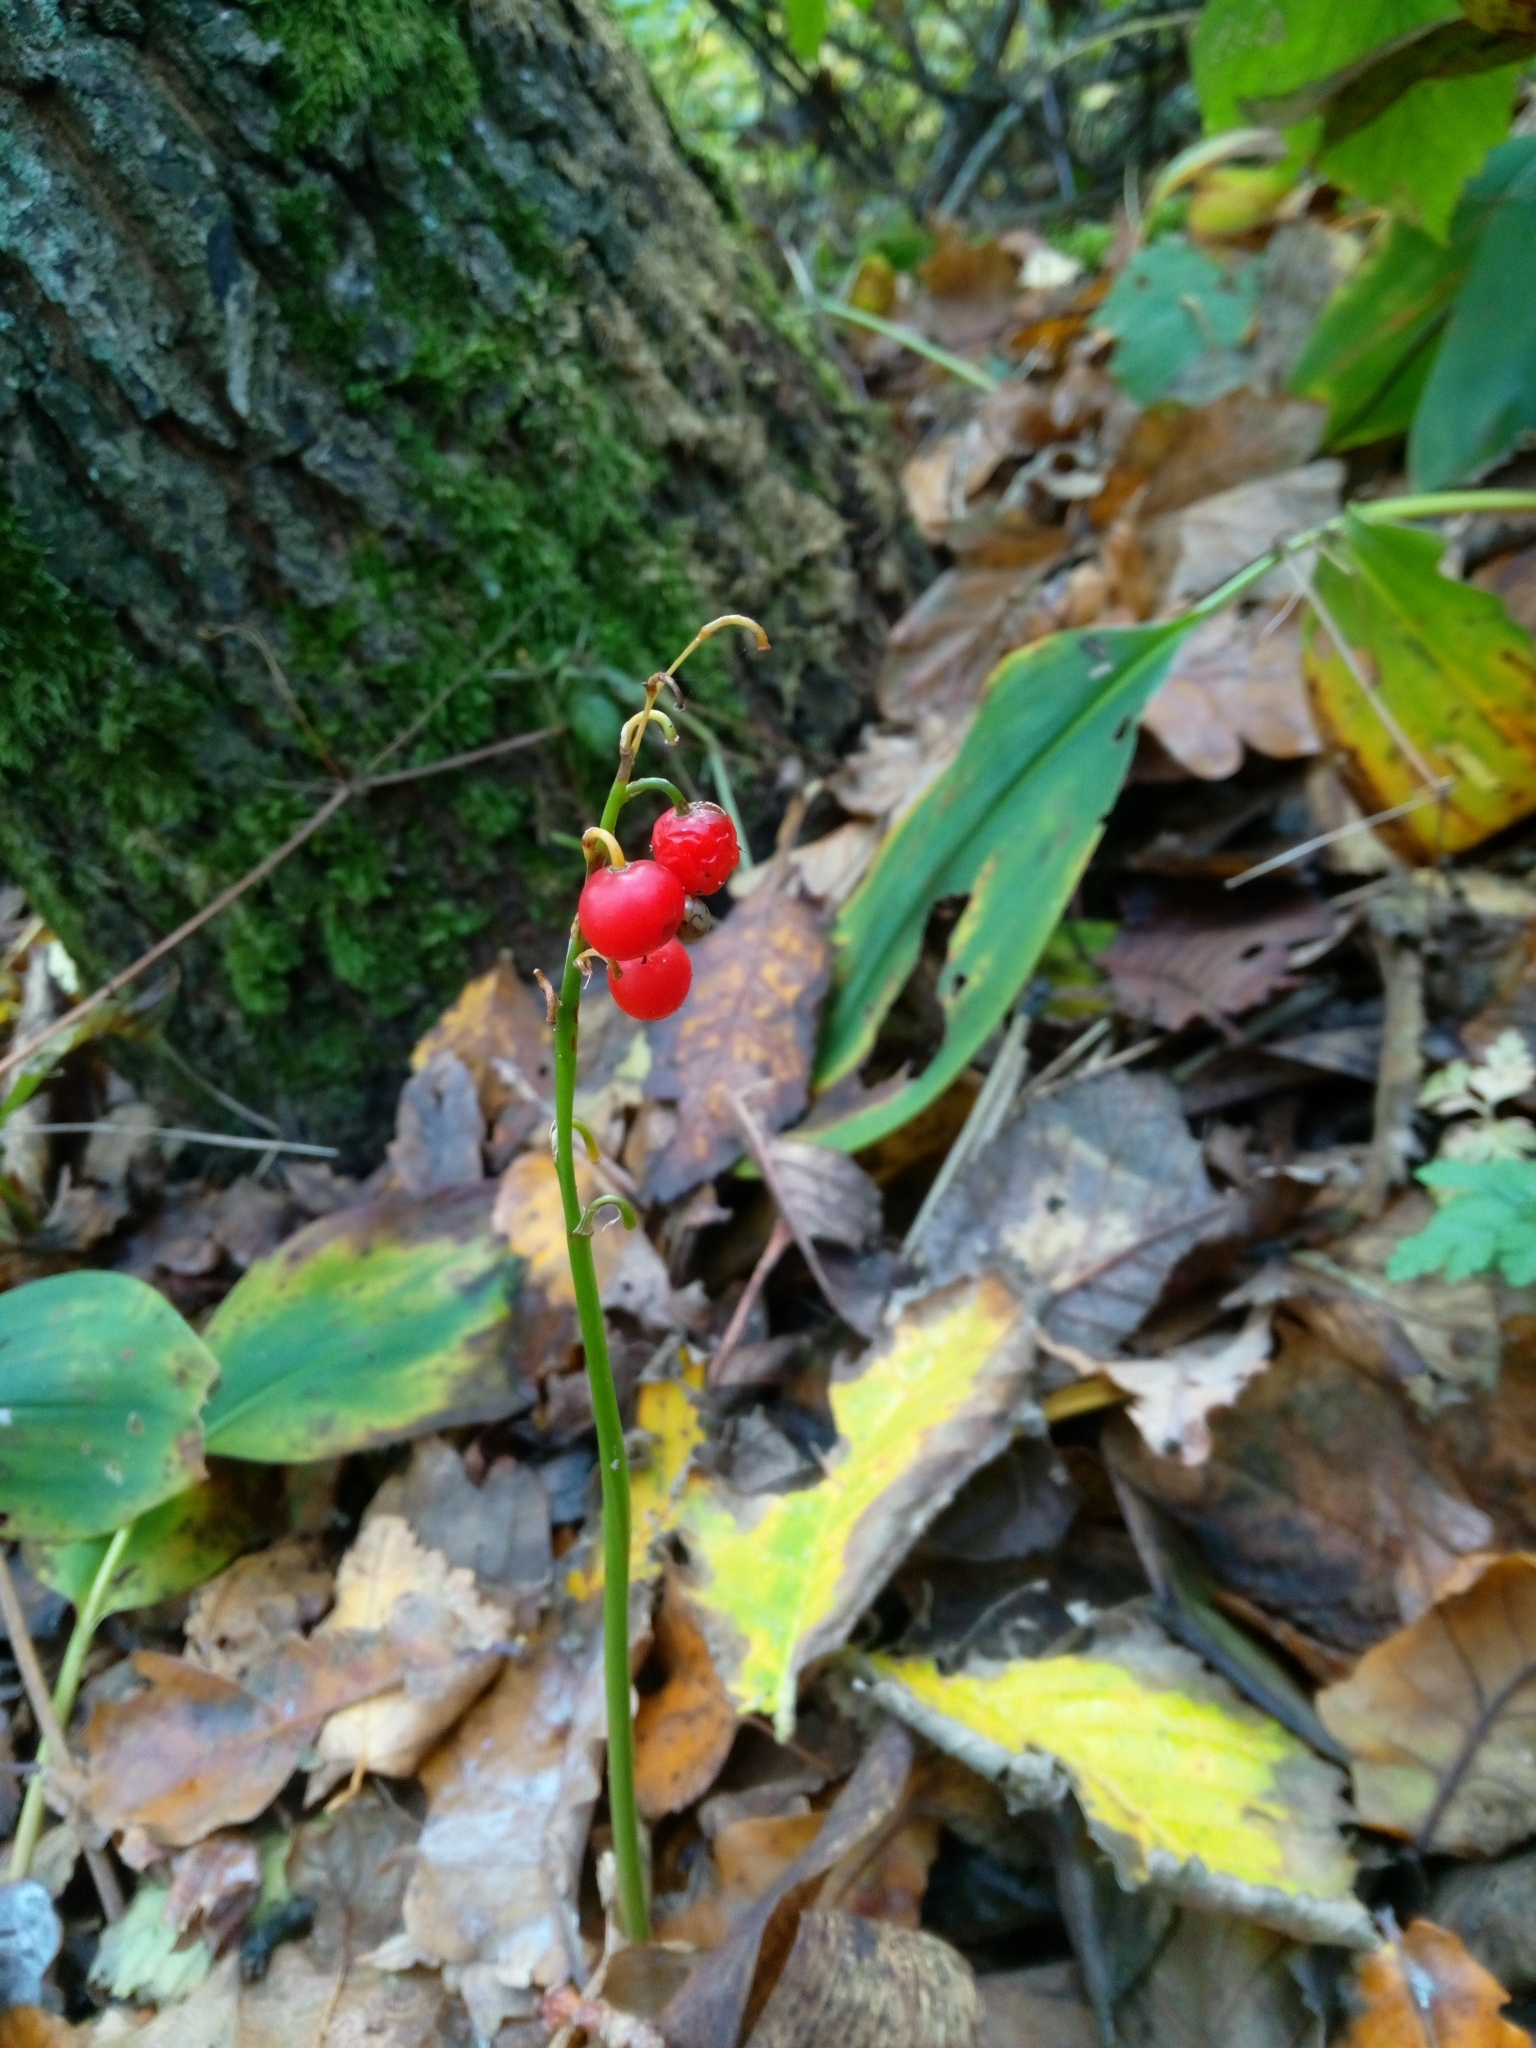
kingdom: Plantae
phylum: Tracheophyta
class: Liliopsida
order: Asparagales
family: Asparagaceae
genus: Convallaria
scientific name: Convallaria majalis
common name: Lily-of-the-valley
